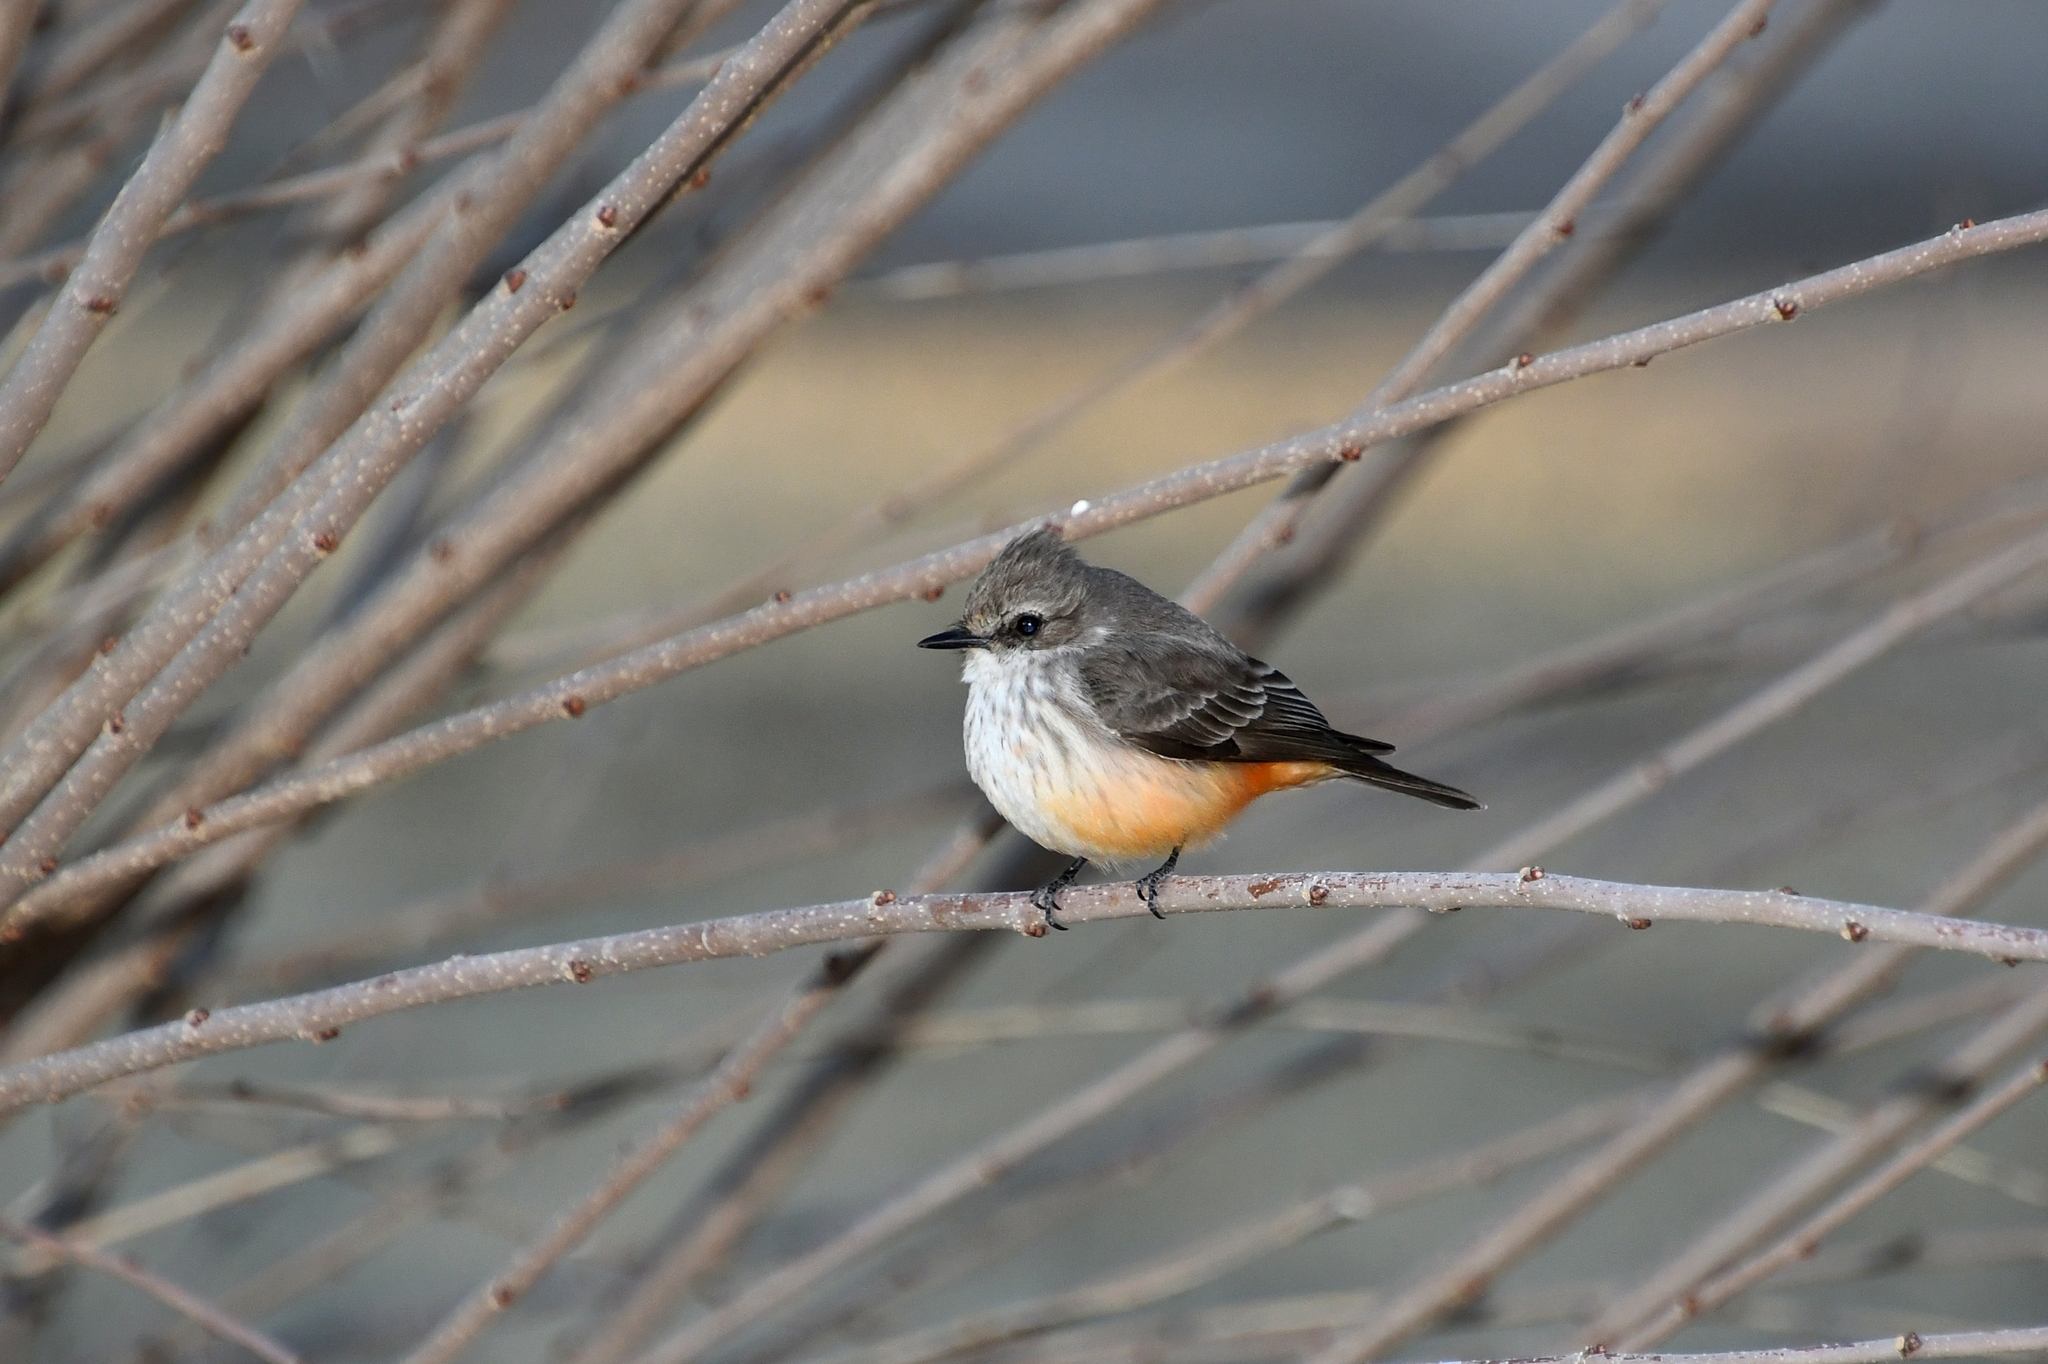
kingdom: Animalia
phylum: Chordata
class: Aves
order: Passeriformes
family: Tyrannidae
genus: Pyrocephalus
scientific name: Pyrocephalus rubinus
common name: Vermilion flycatcher
